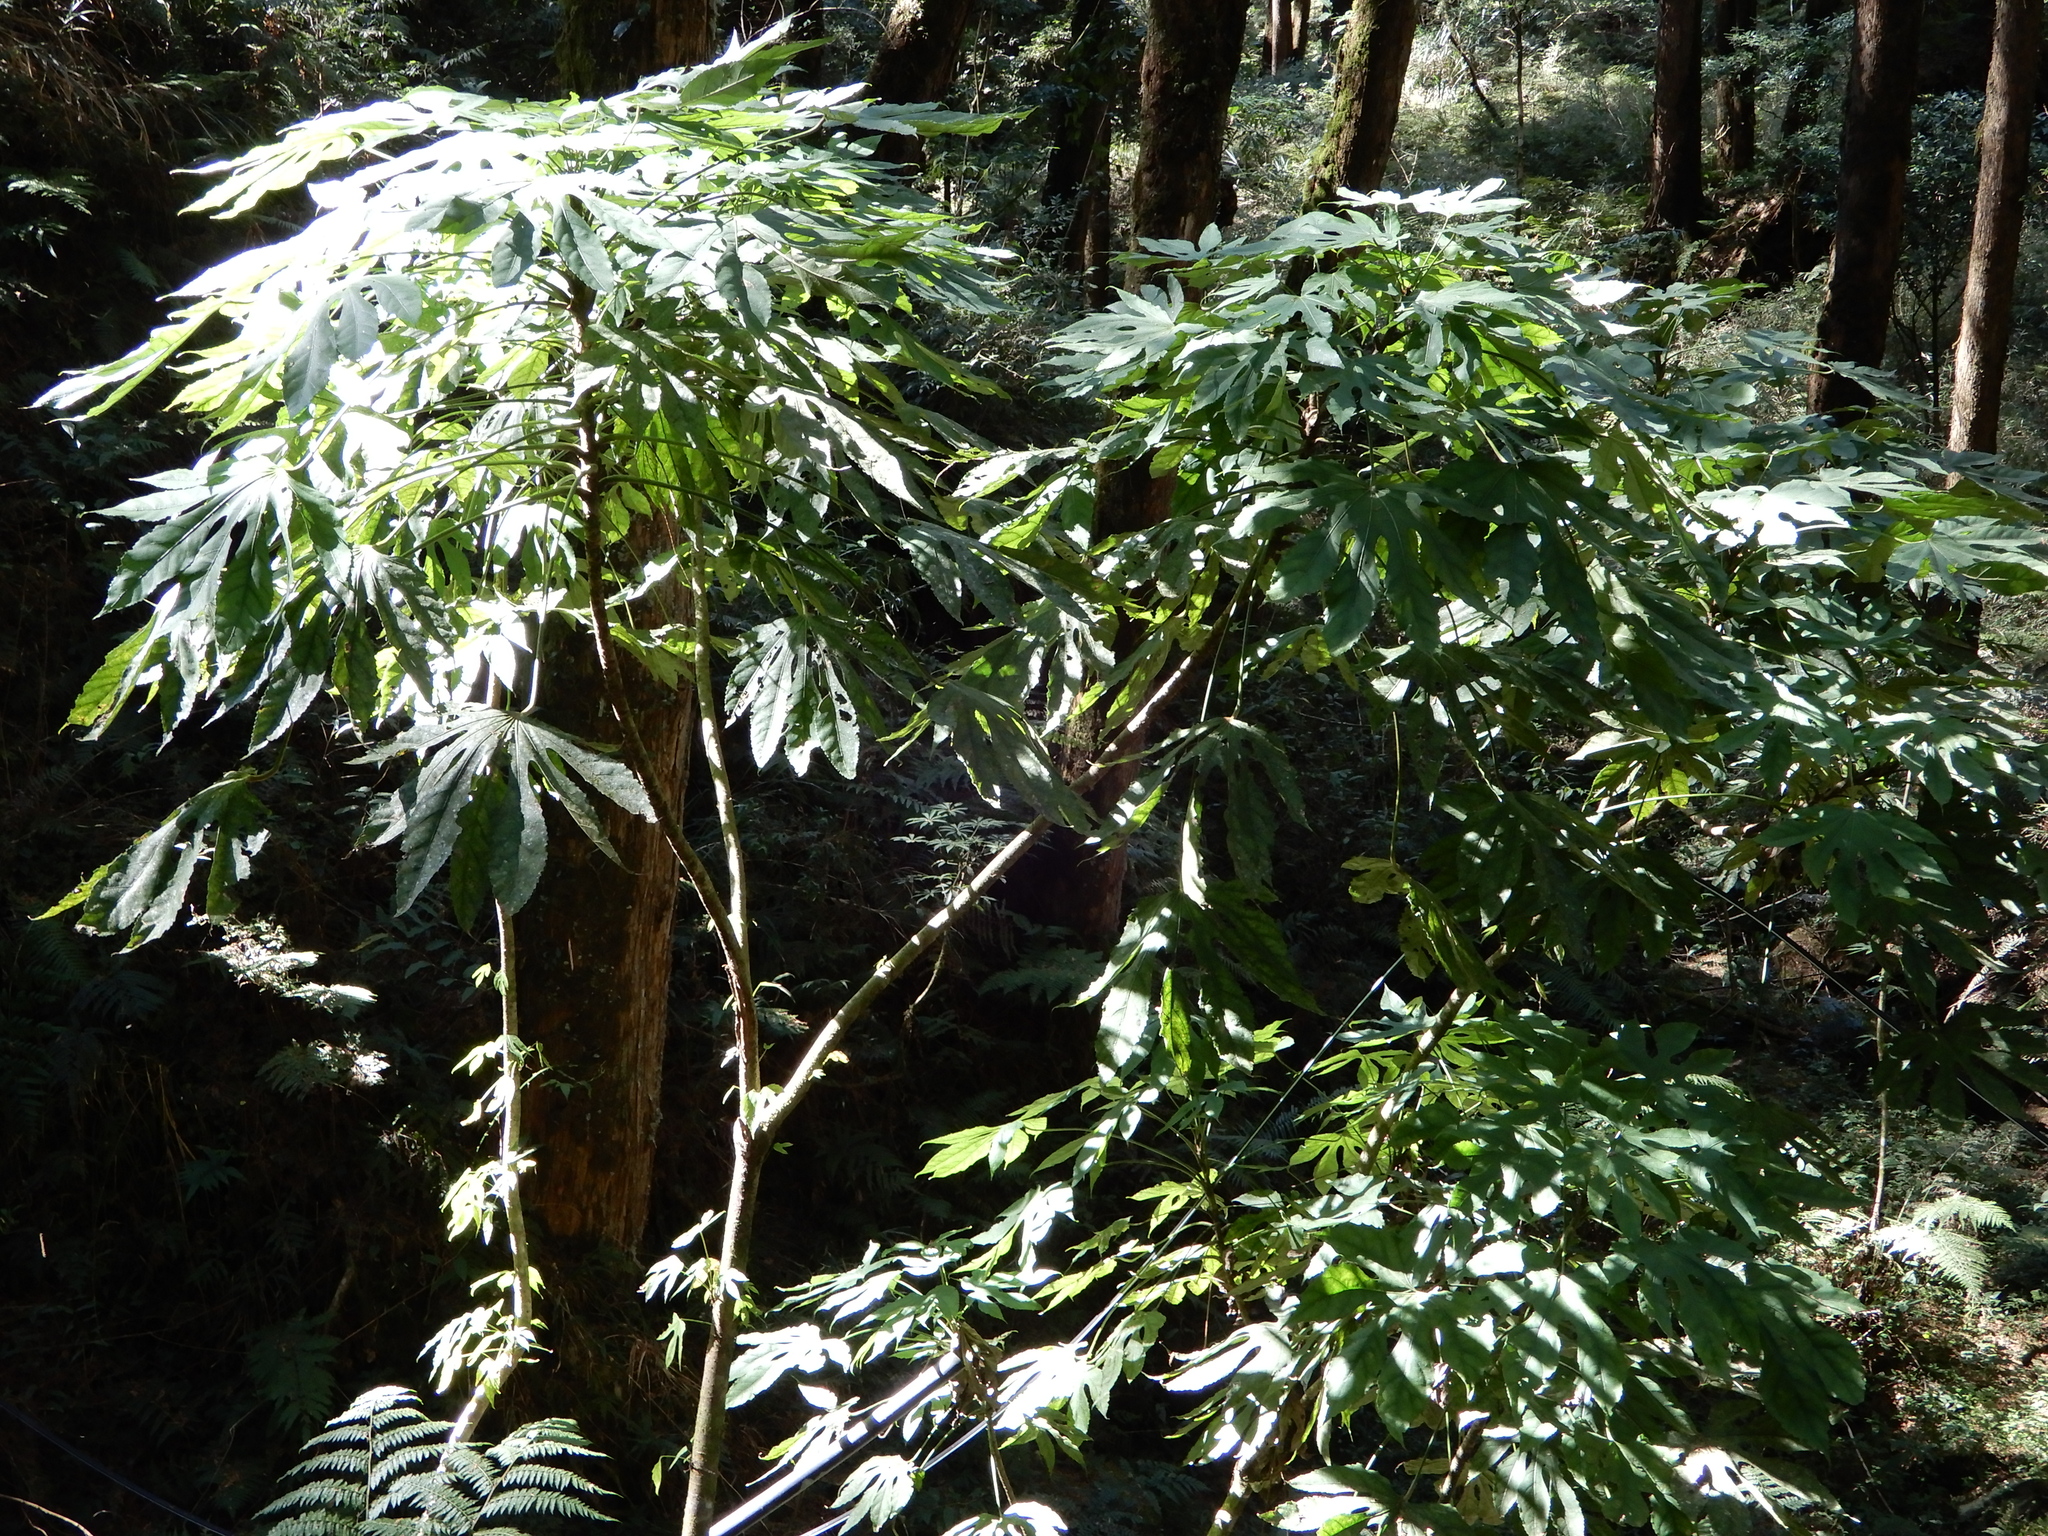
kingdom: Plantae
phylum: Tracheophyta
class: Magnoliopsida
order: Apiales
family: Araliaceae
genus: Fatsia
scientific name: Fatsia polycarpa
